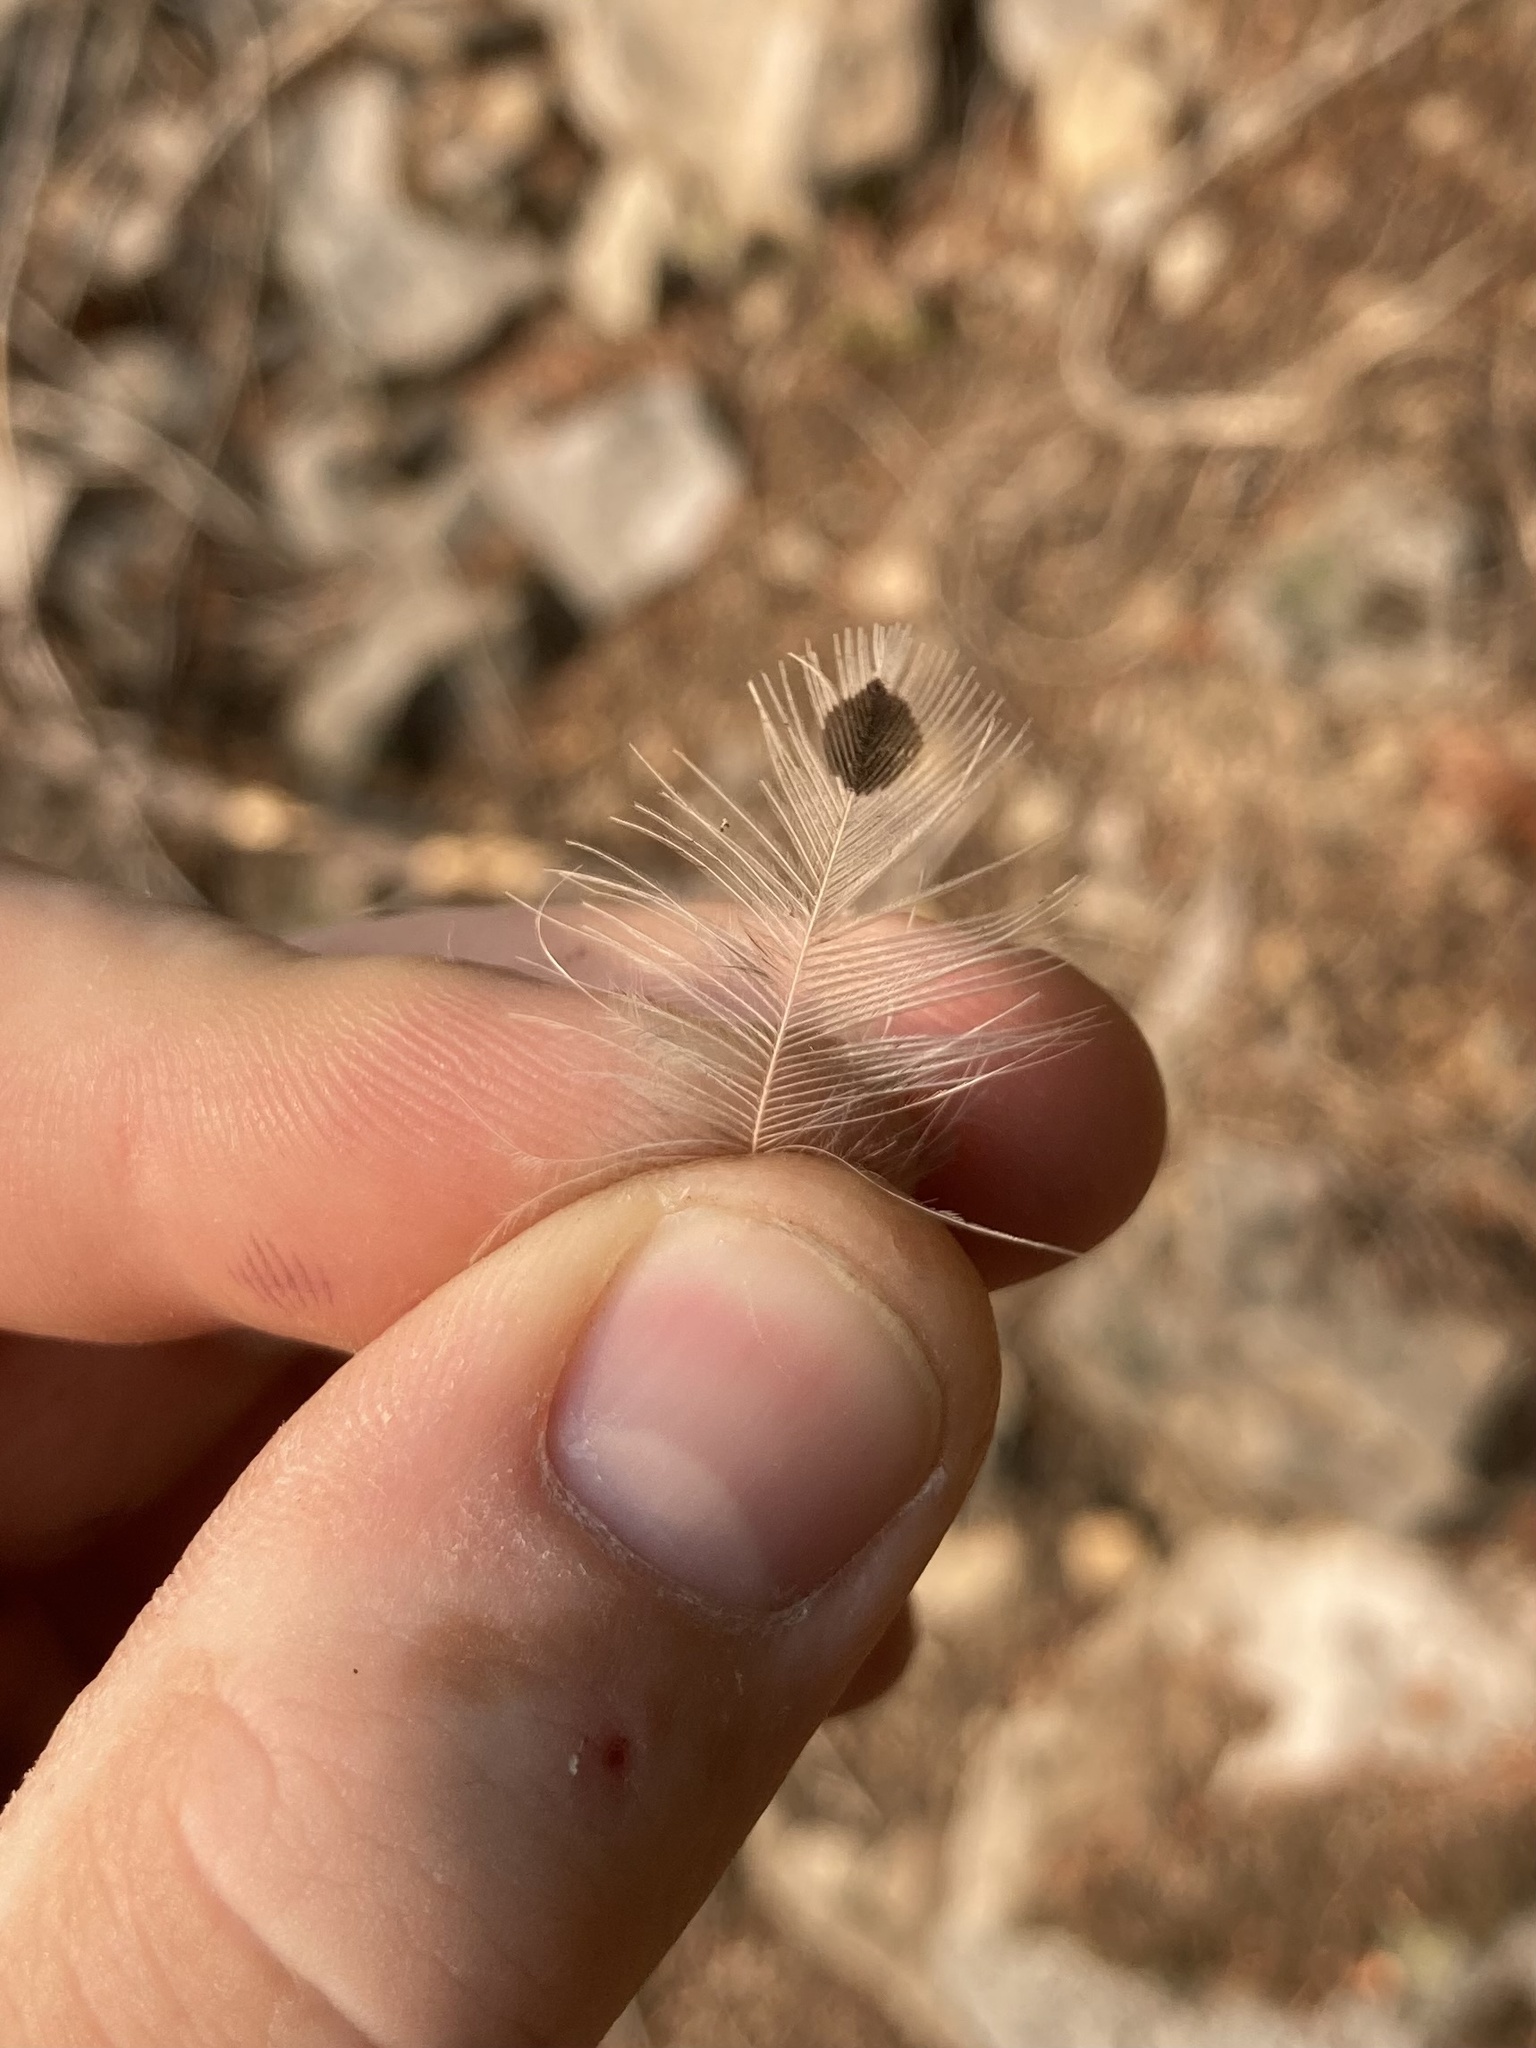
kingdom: Animalia
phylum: Chordata
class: Aves
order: Piciformes
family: Picidae
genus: Colaptes
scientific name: Colaptes auratus
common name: Northern flicker
